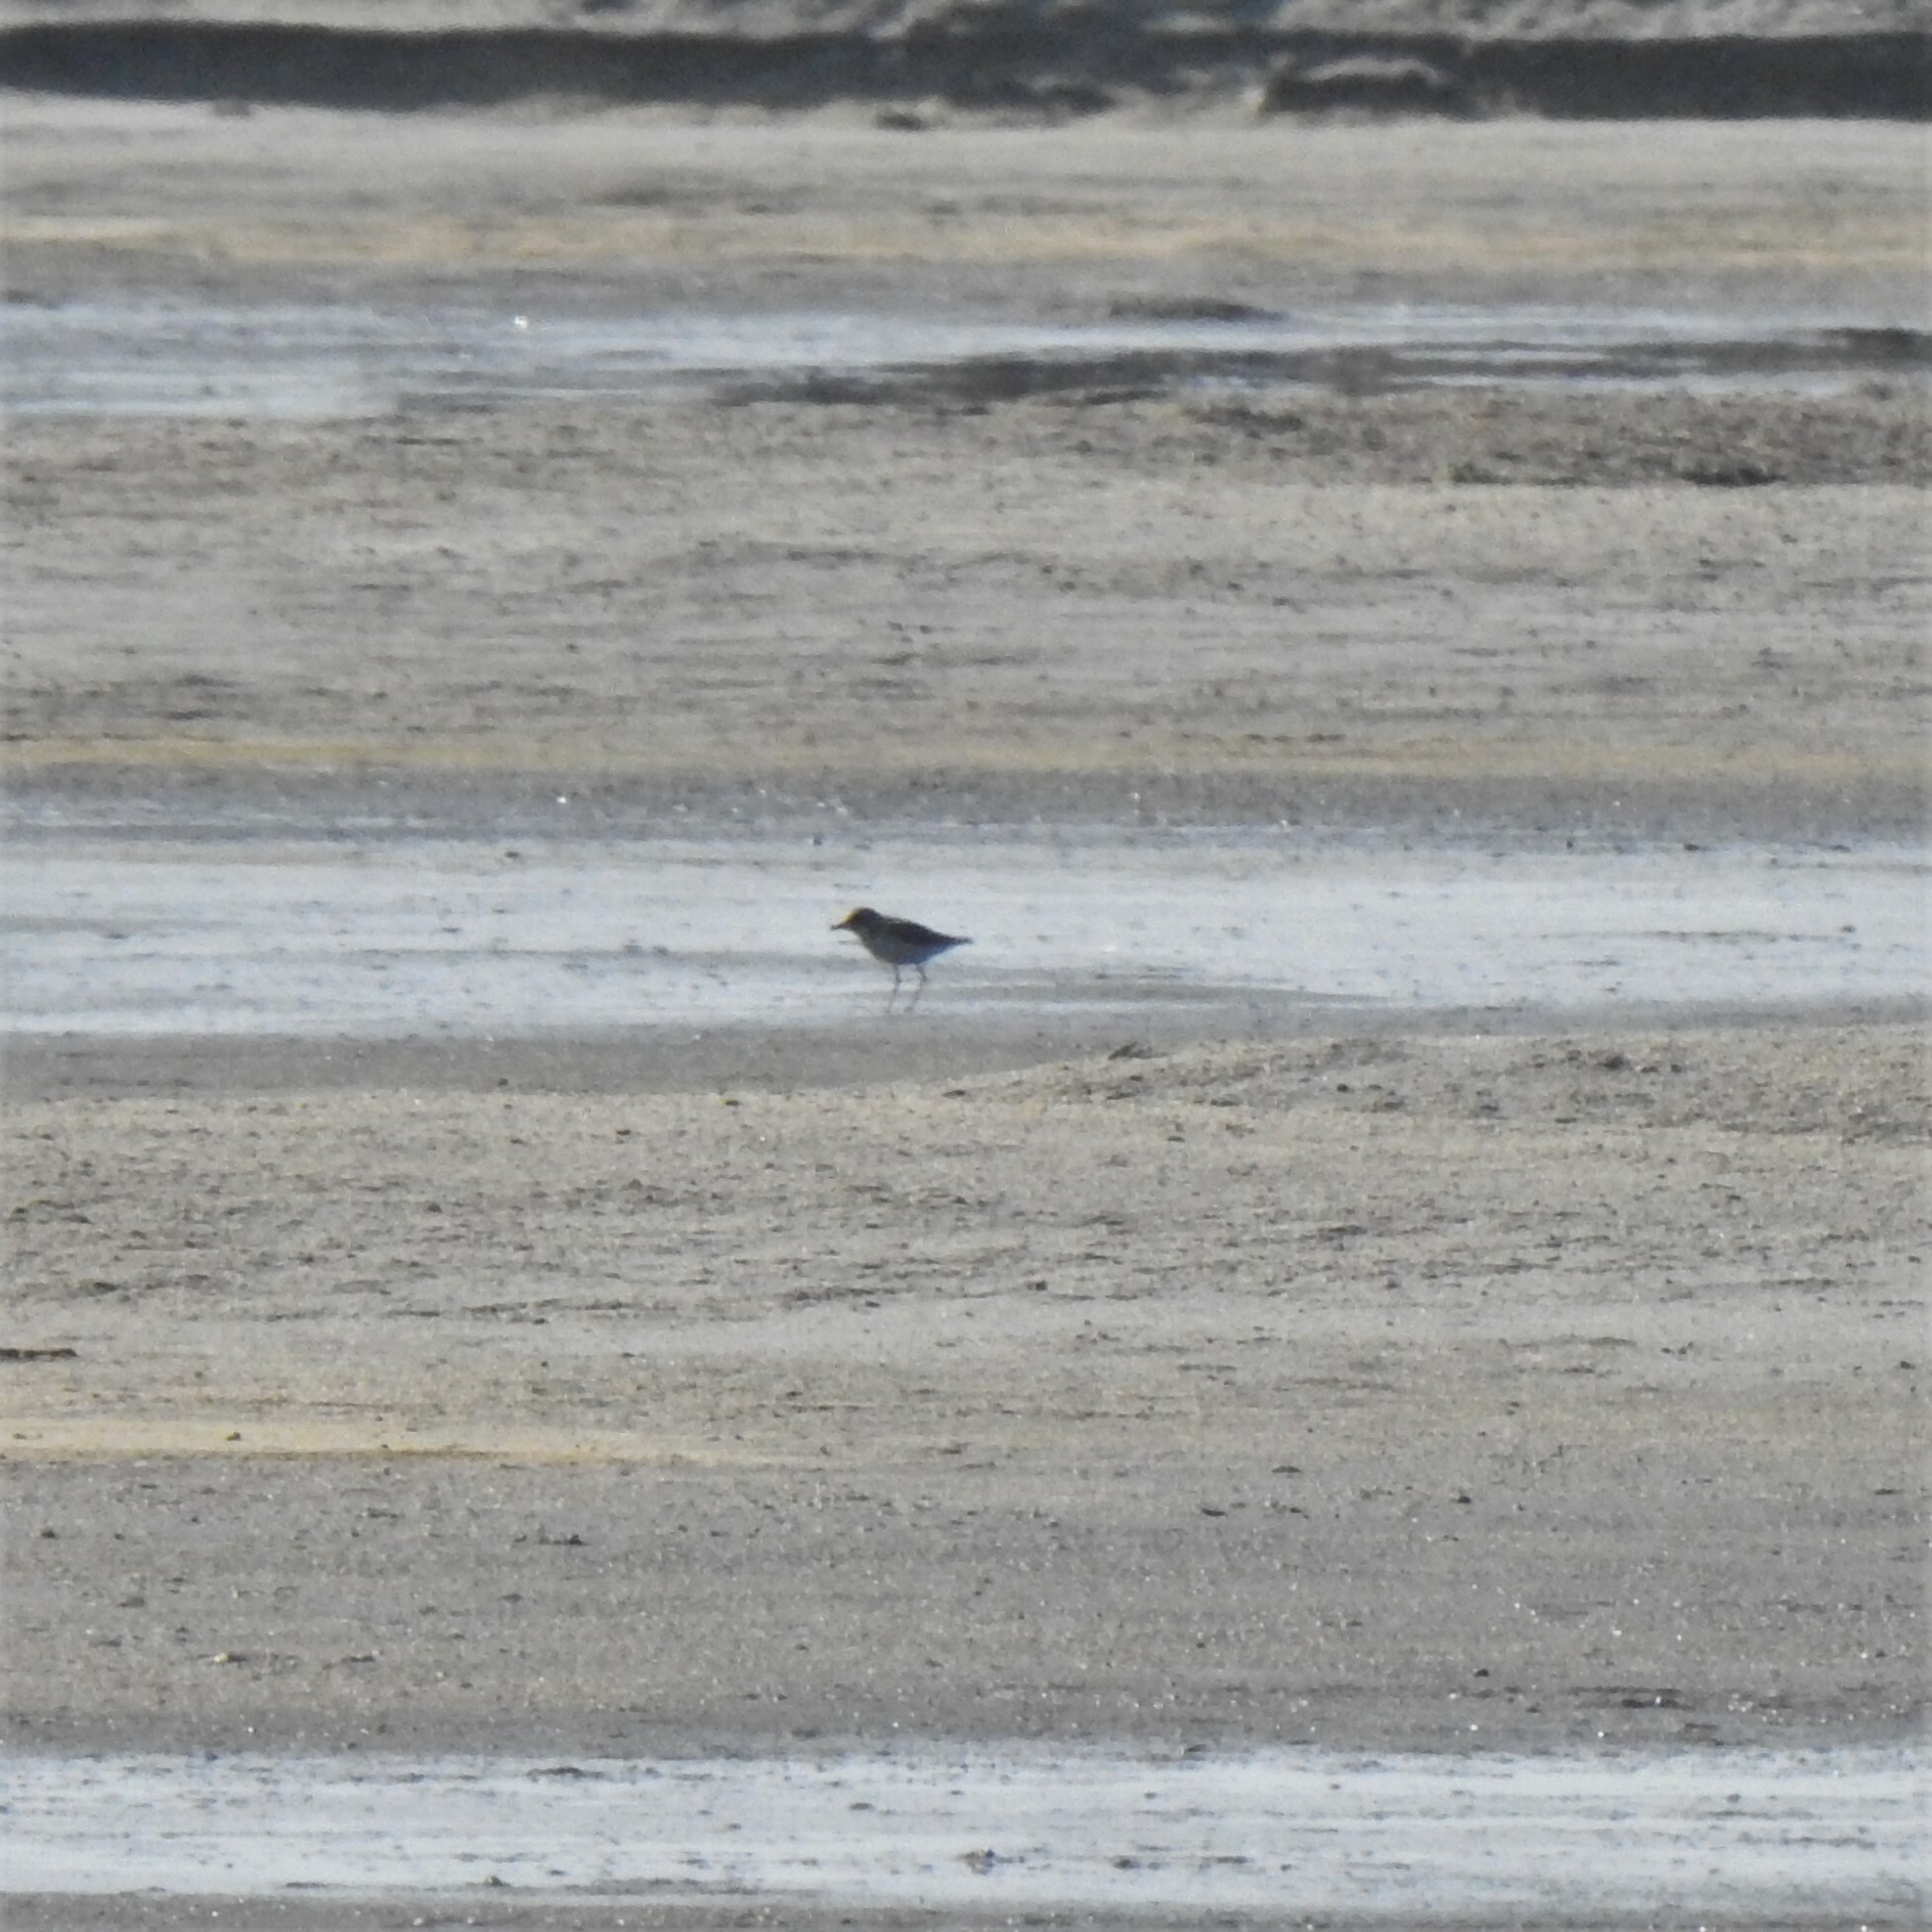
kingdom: Animalia
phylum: Chordata
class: Aves
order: Charadriiformes
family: Charadriidae
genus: Anarhynchus
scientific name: Anarhynchus
